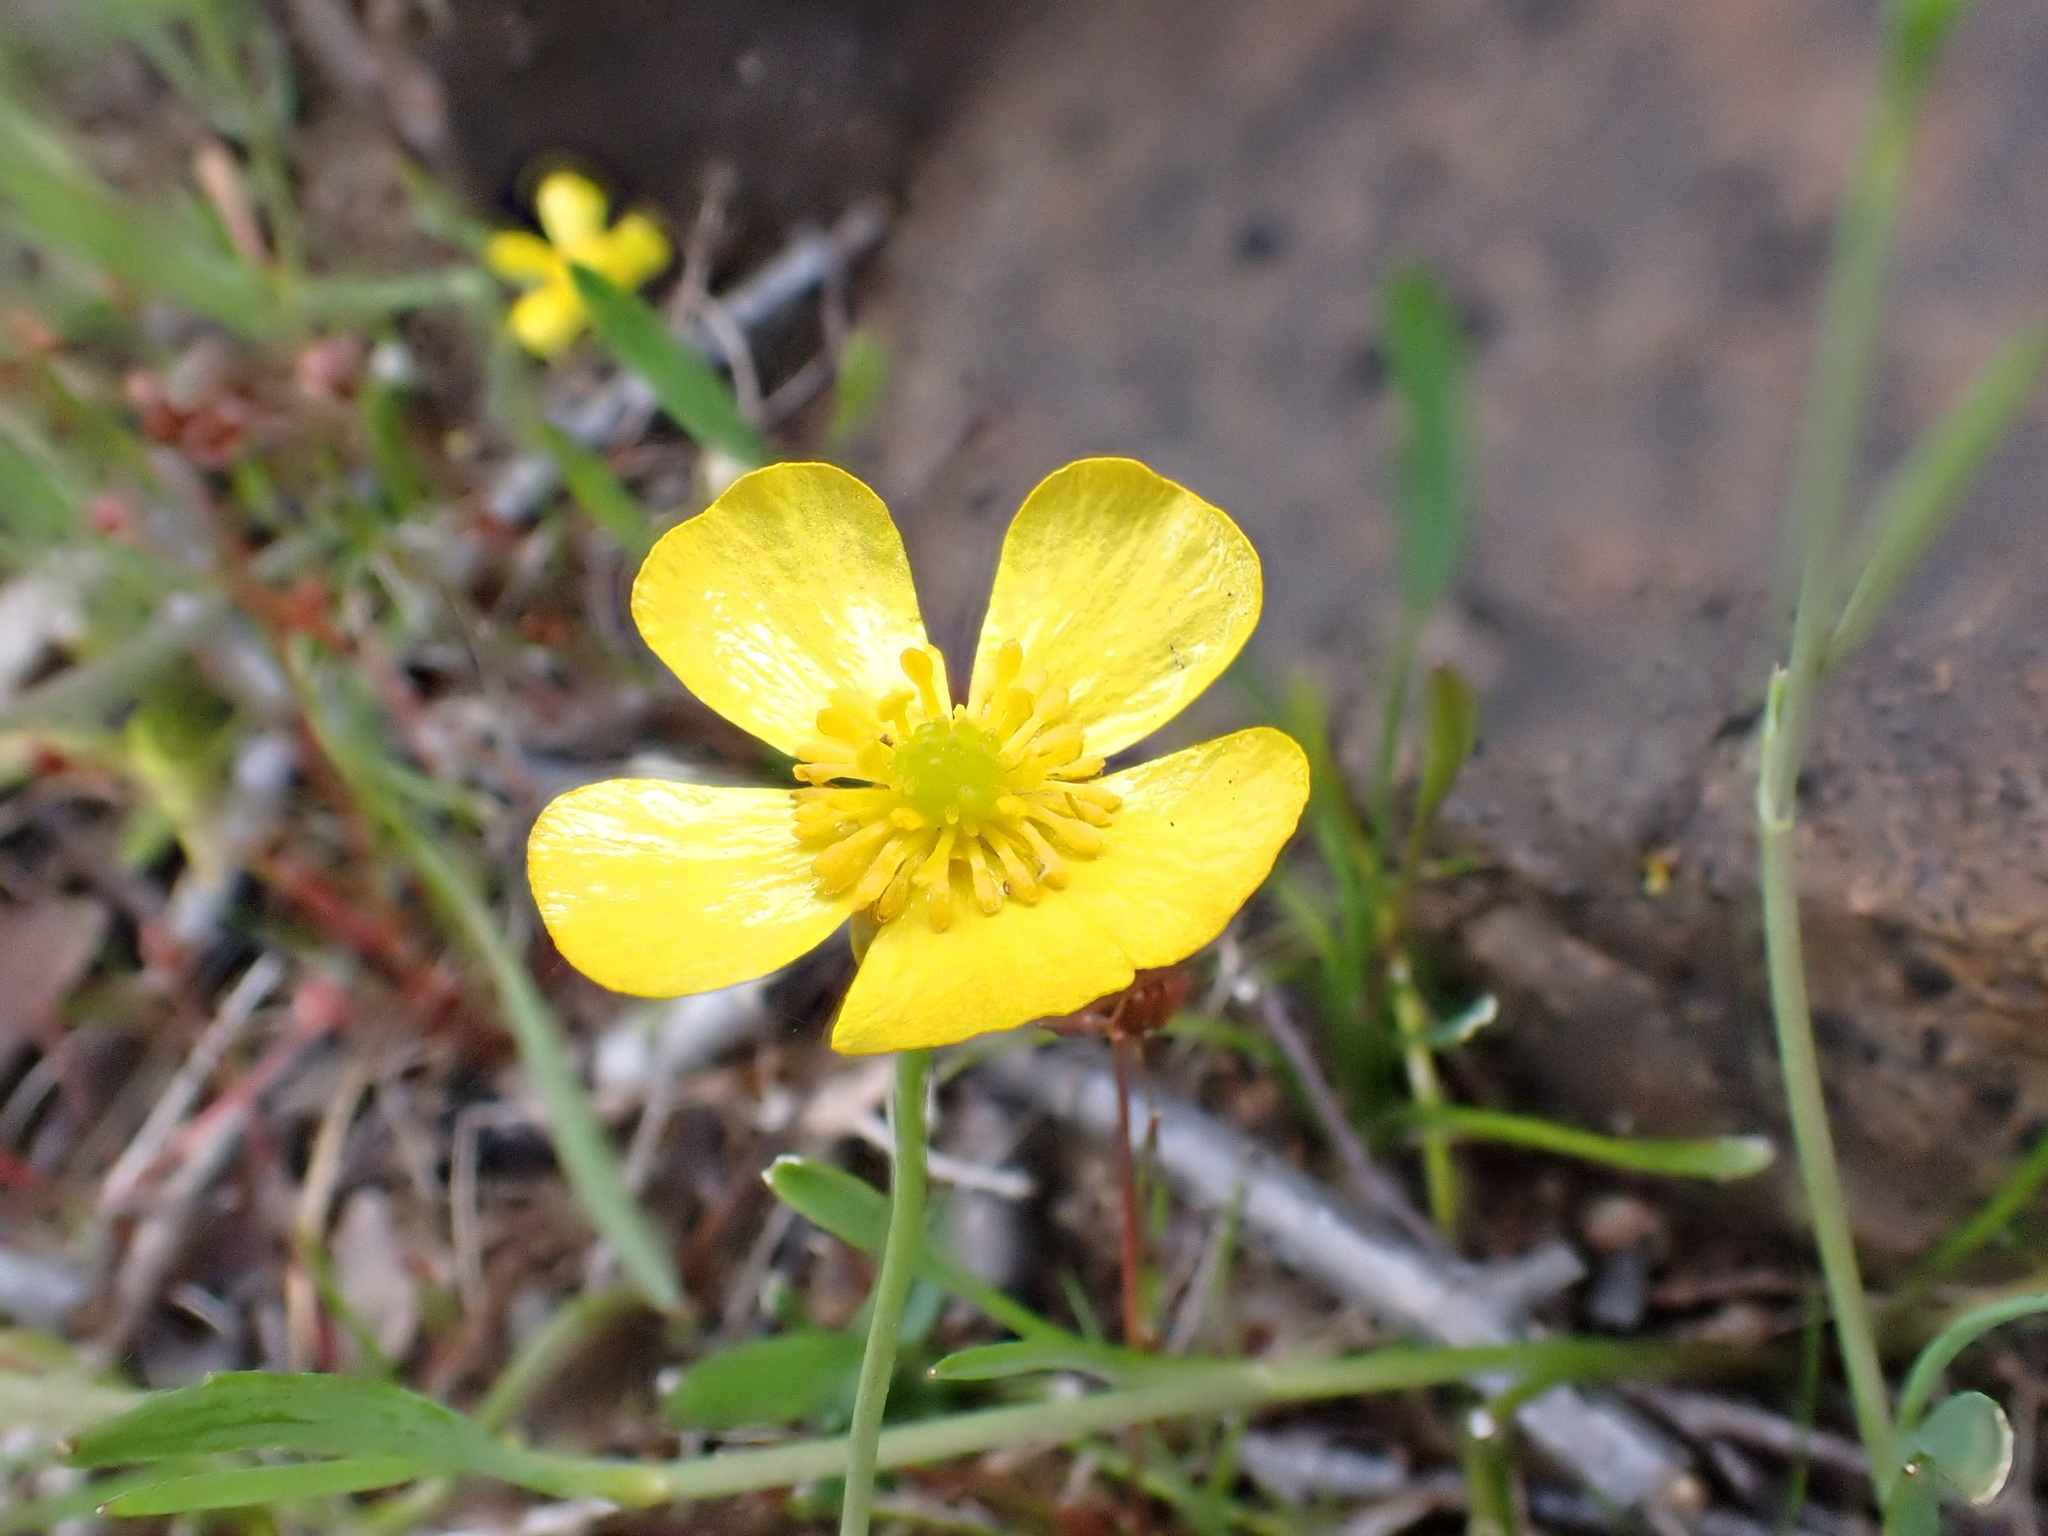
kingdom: Plantae
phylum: Tracheophyta
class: Magnoliopsida
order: Ranunculales
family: Ranunculaceae
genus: Ranunculus
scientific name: Ranunculus flammula
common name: Lesser spearwort
